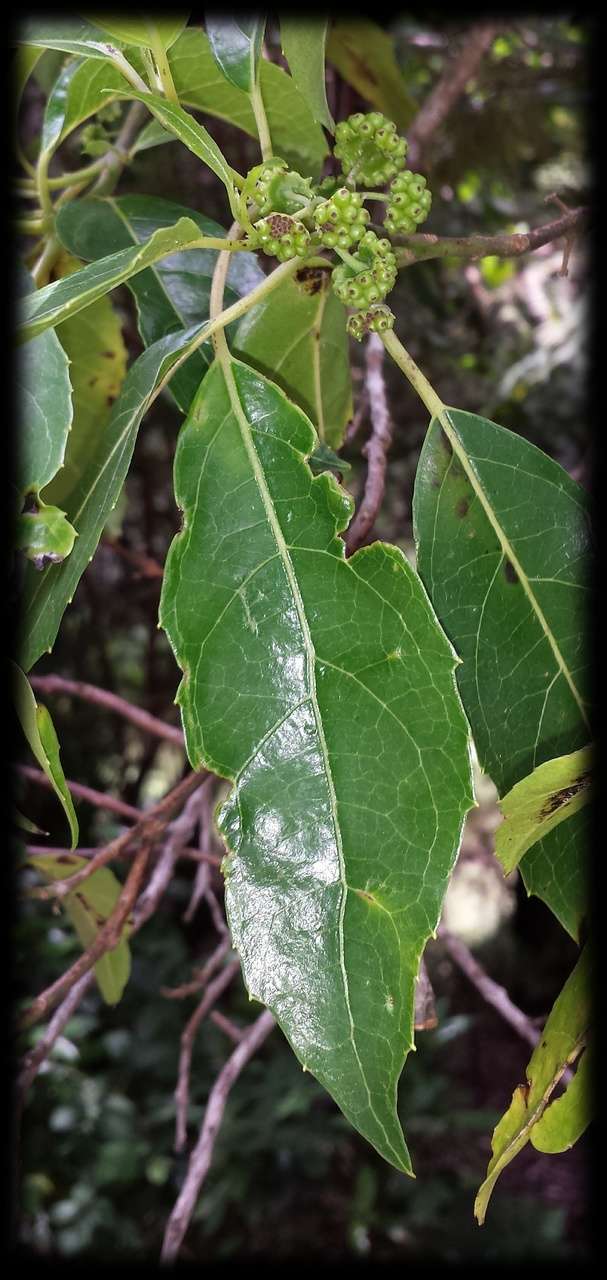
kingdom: Plantae
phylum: Tracheophyta
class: Magnoliopsida
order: Laurales
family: Monimiaceae
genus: Hedycarya
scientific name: Hedycarya angustifolia
